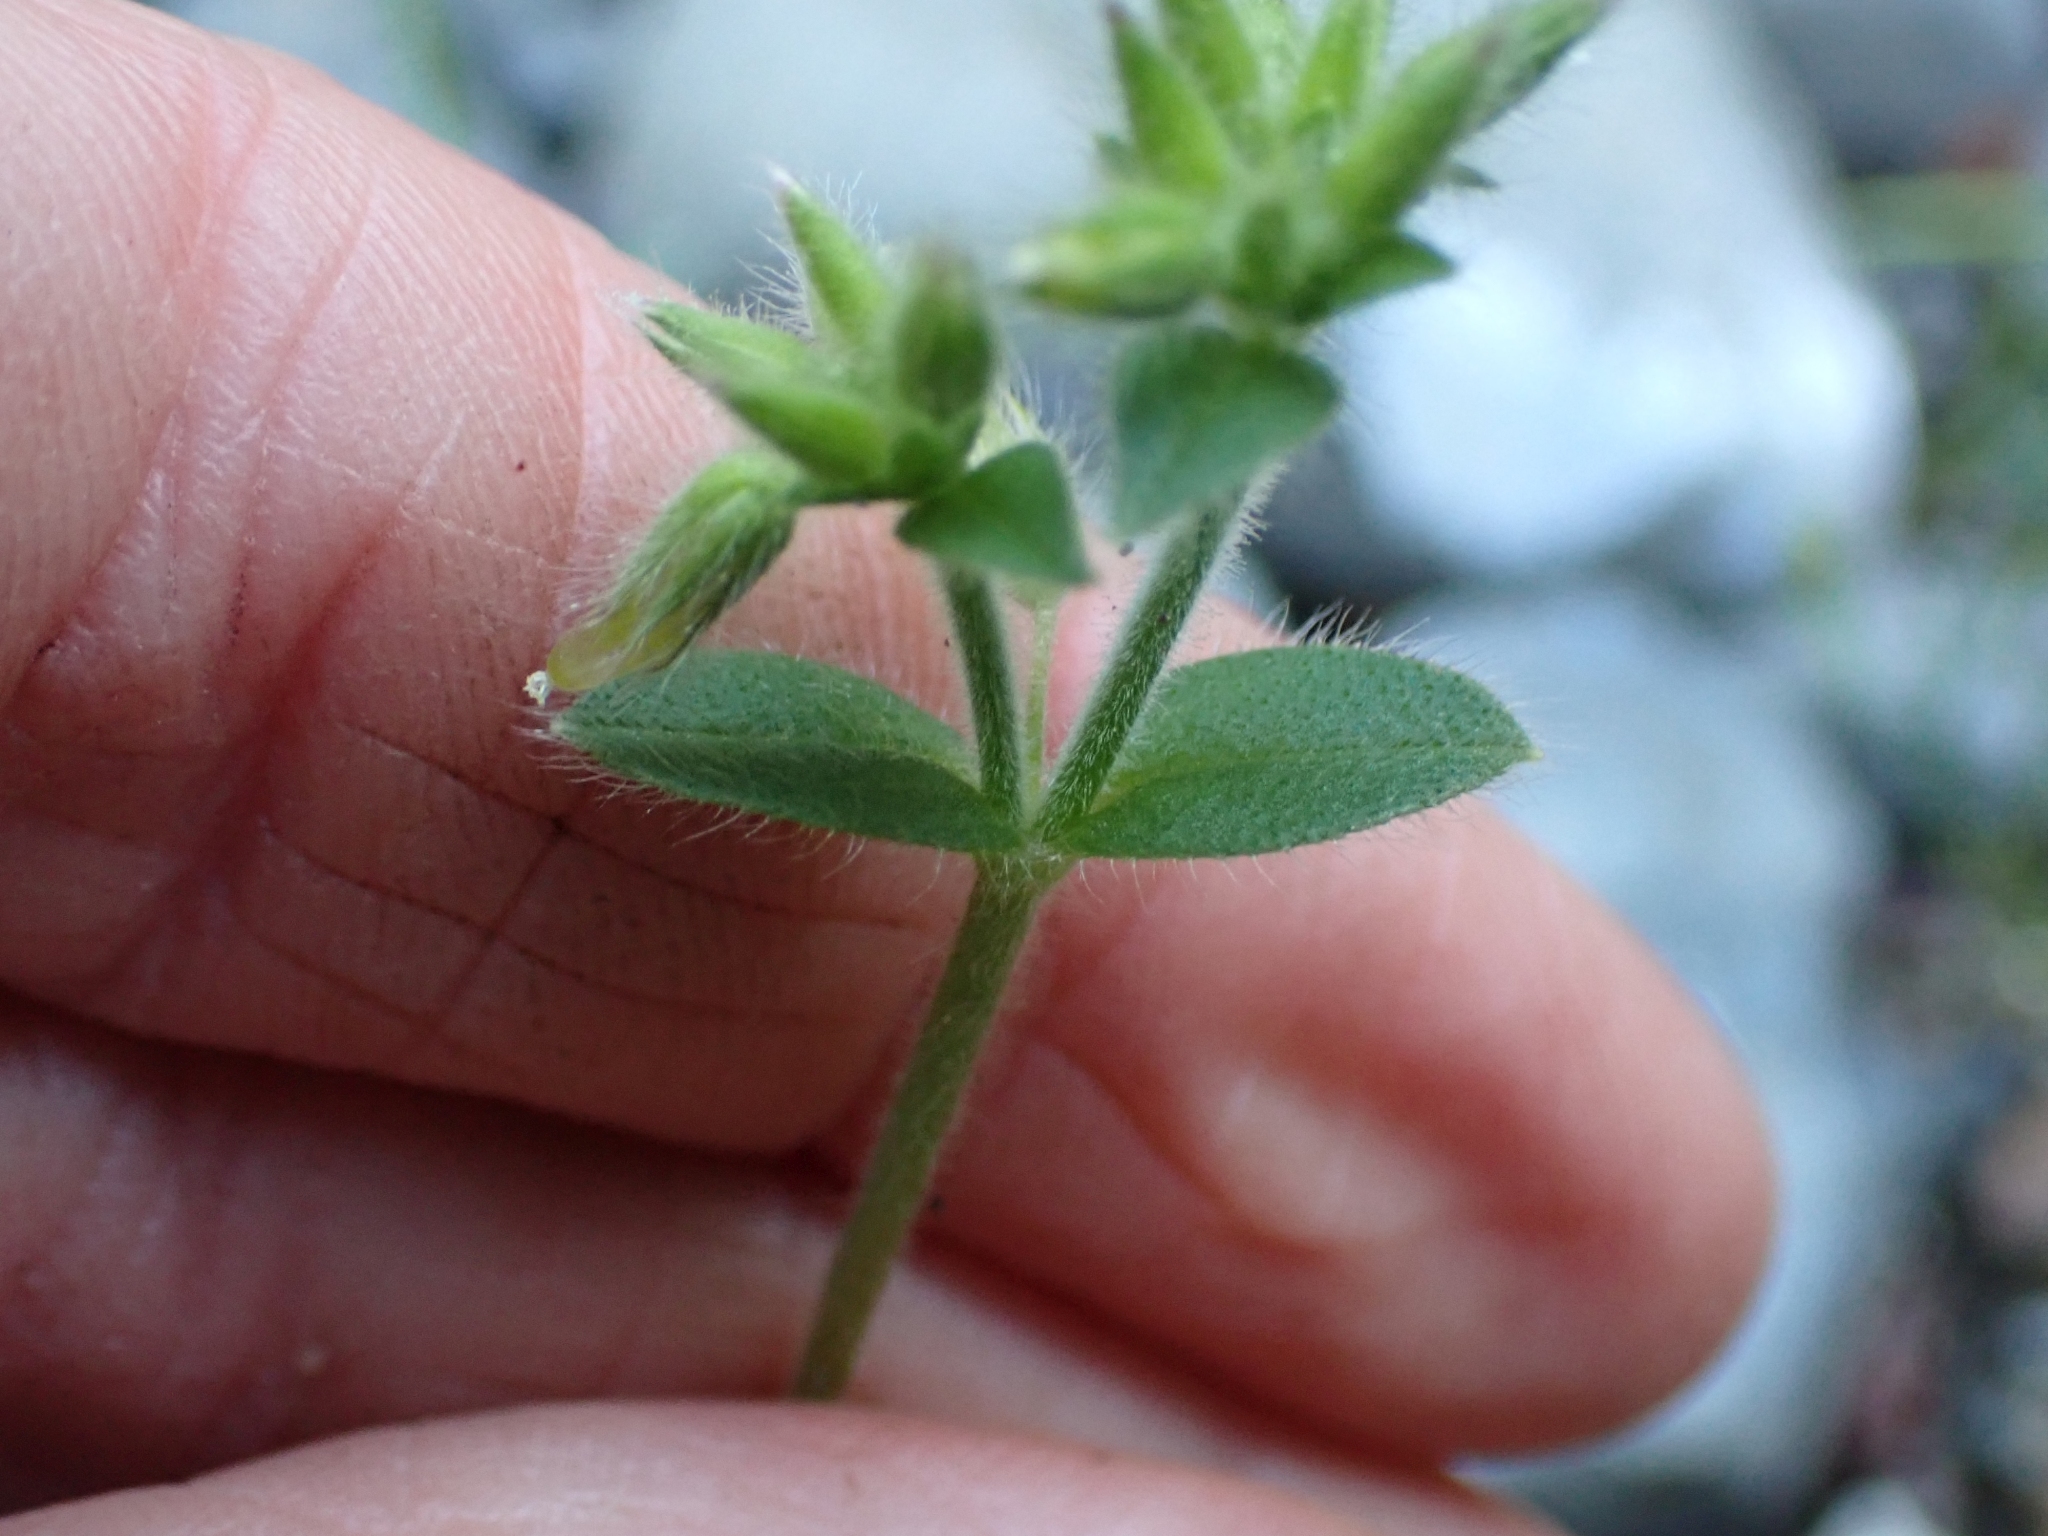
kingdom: Plantae
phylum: Tracheophyta
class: Magnoliopsida
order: Caryophyllales
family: Caryophyllaceae
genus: Cerastium
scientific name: Cerastium glomeratum
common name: Sticky chickweed
